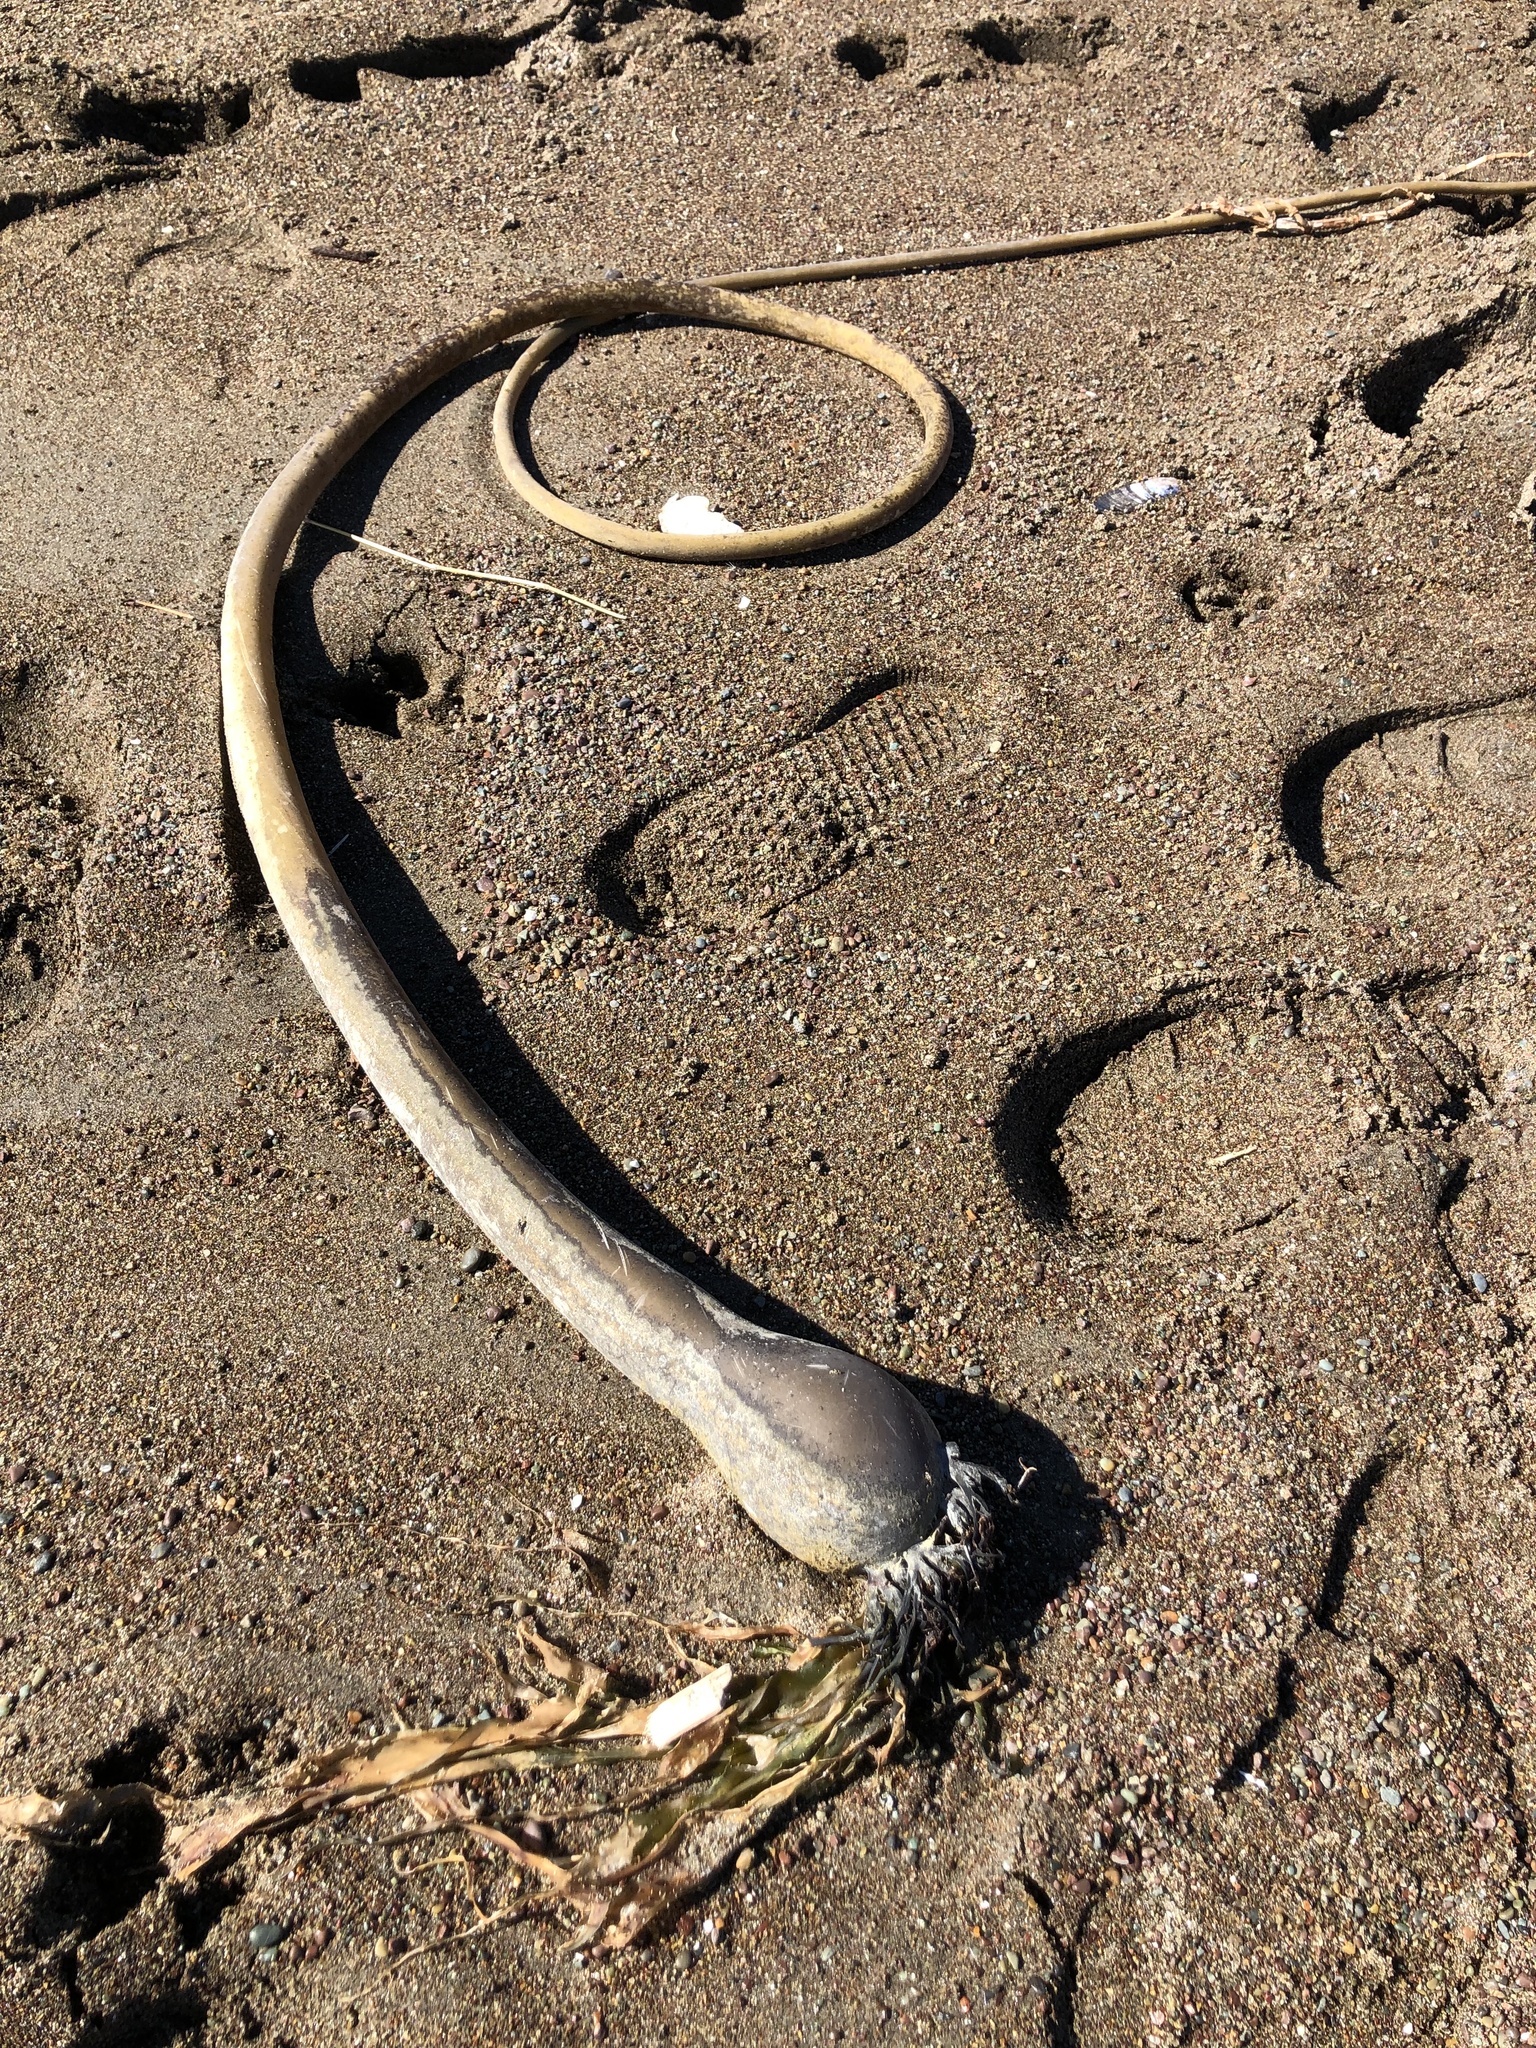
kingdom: Chromista
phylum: Ochrophyta
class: Phaeophyceae
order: Laminariales
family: Laminariaceae
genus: Nereocystis
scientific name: Nereocystis luetkeana
